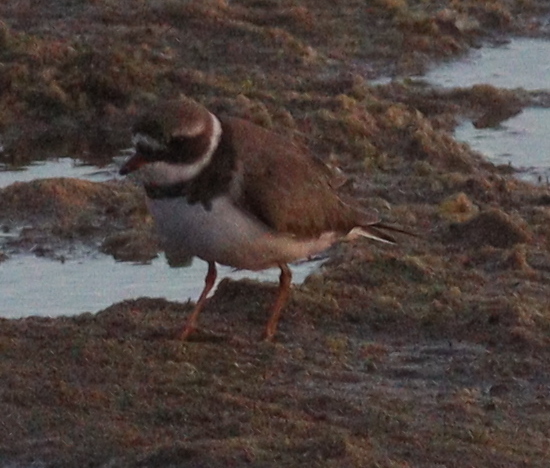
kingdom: Animalia
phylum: Chordata
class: Aves
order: Charadriiformes
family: Charadriidae
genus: Charadrius
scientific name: Charadrius hiaticula
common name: Common ringed plover
